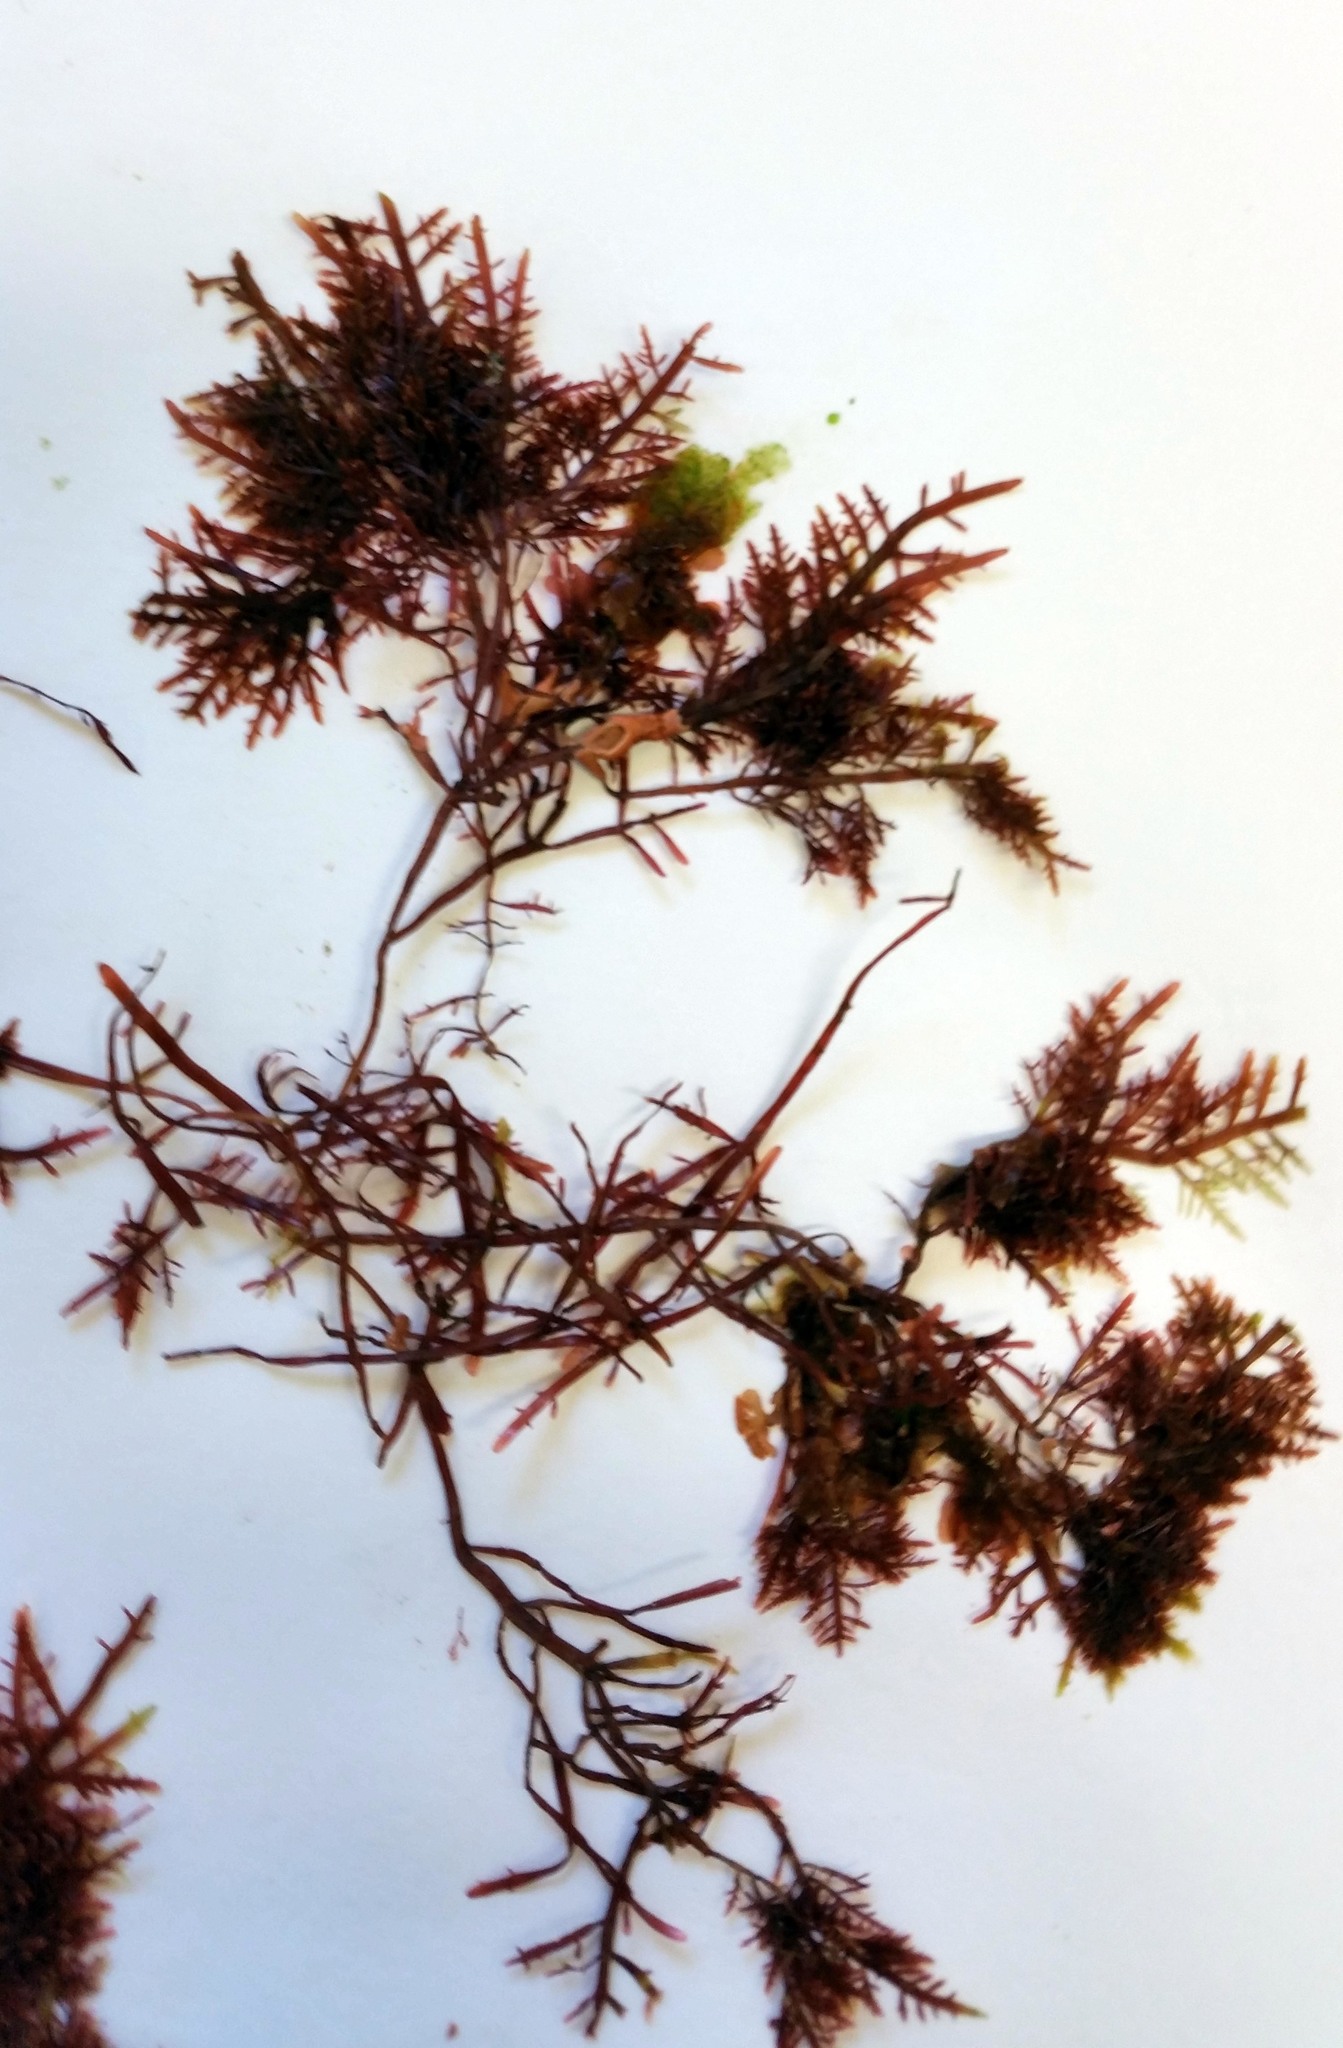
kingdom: Plantae
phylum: Rhodophyta
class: Florideophyceae
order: Gelidiales
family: Pterocladiaceae
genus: Pterocladiella
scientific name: Pterocladiella capillacea
